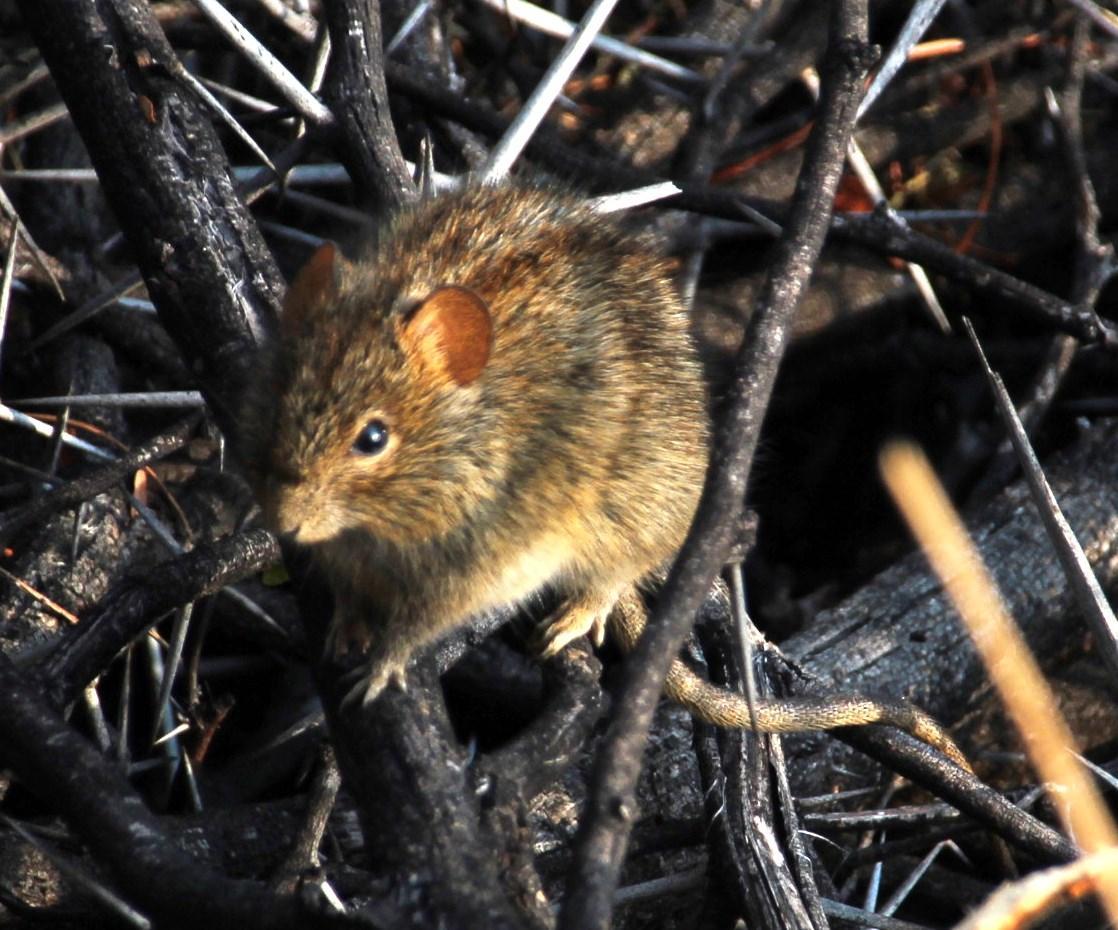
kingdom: Animalia
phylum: Chordata
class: Mammalia
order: Rodentia
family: Muridae
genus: Rhabdomys
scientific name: Rhabdomys pumilio
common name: Xeric four-striped grass rat
